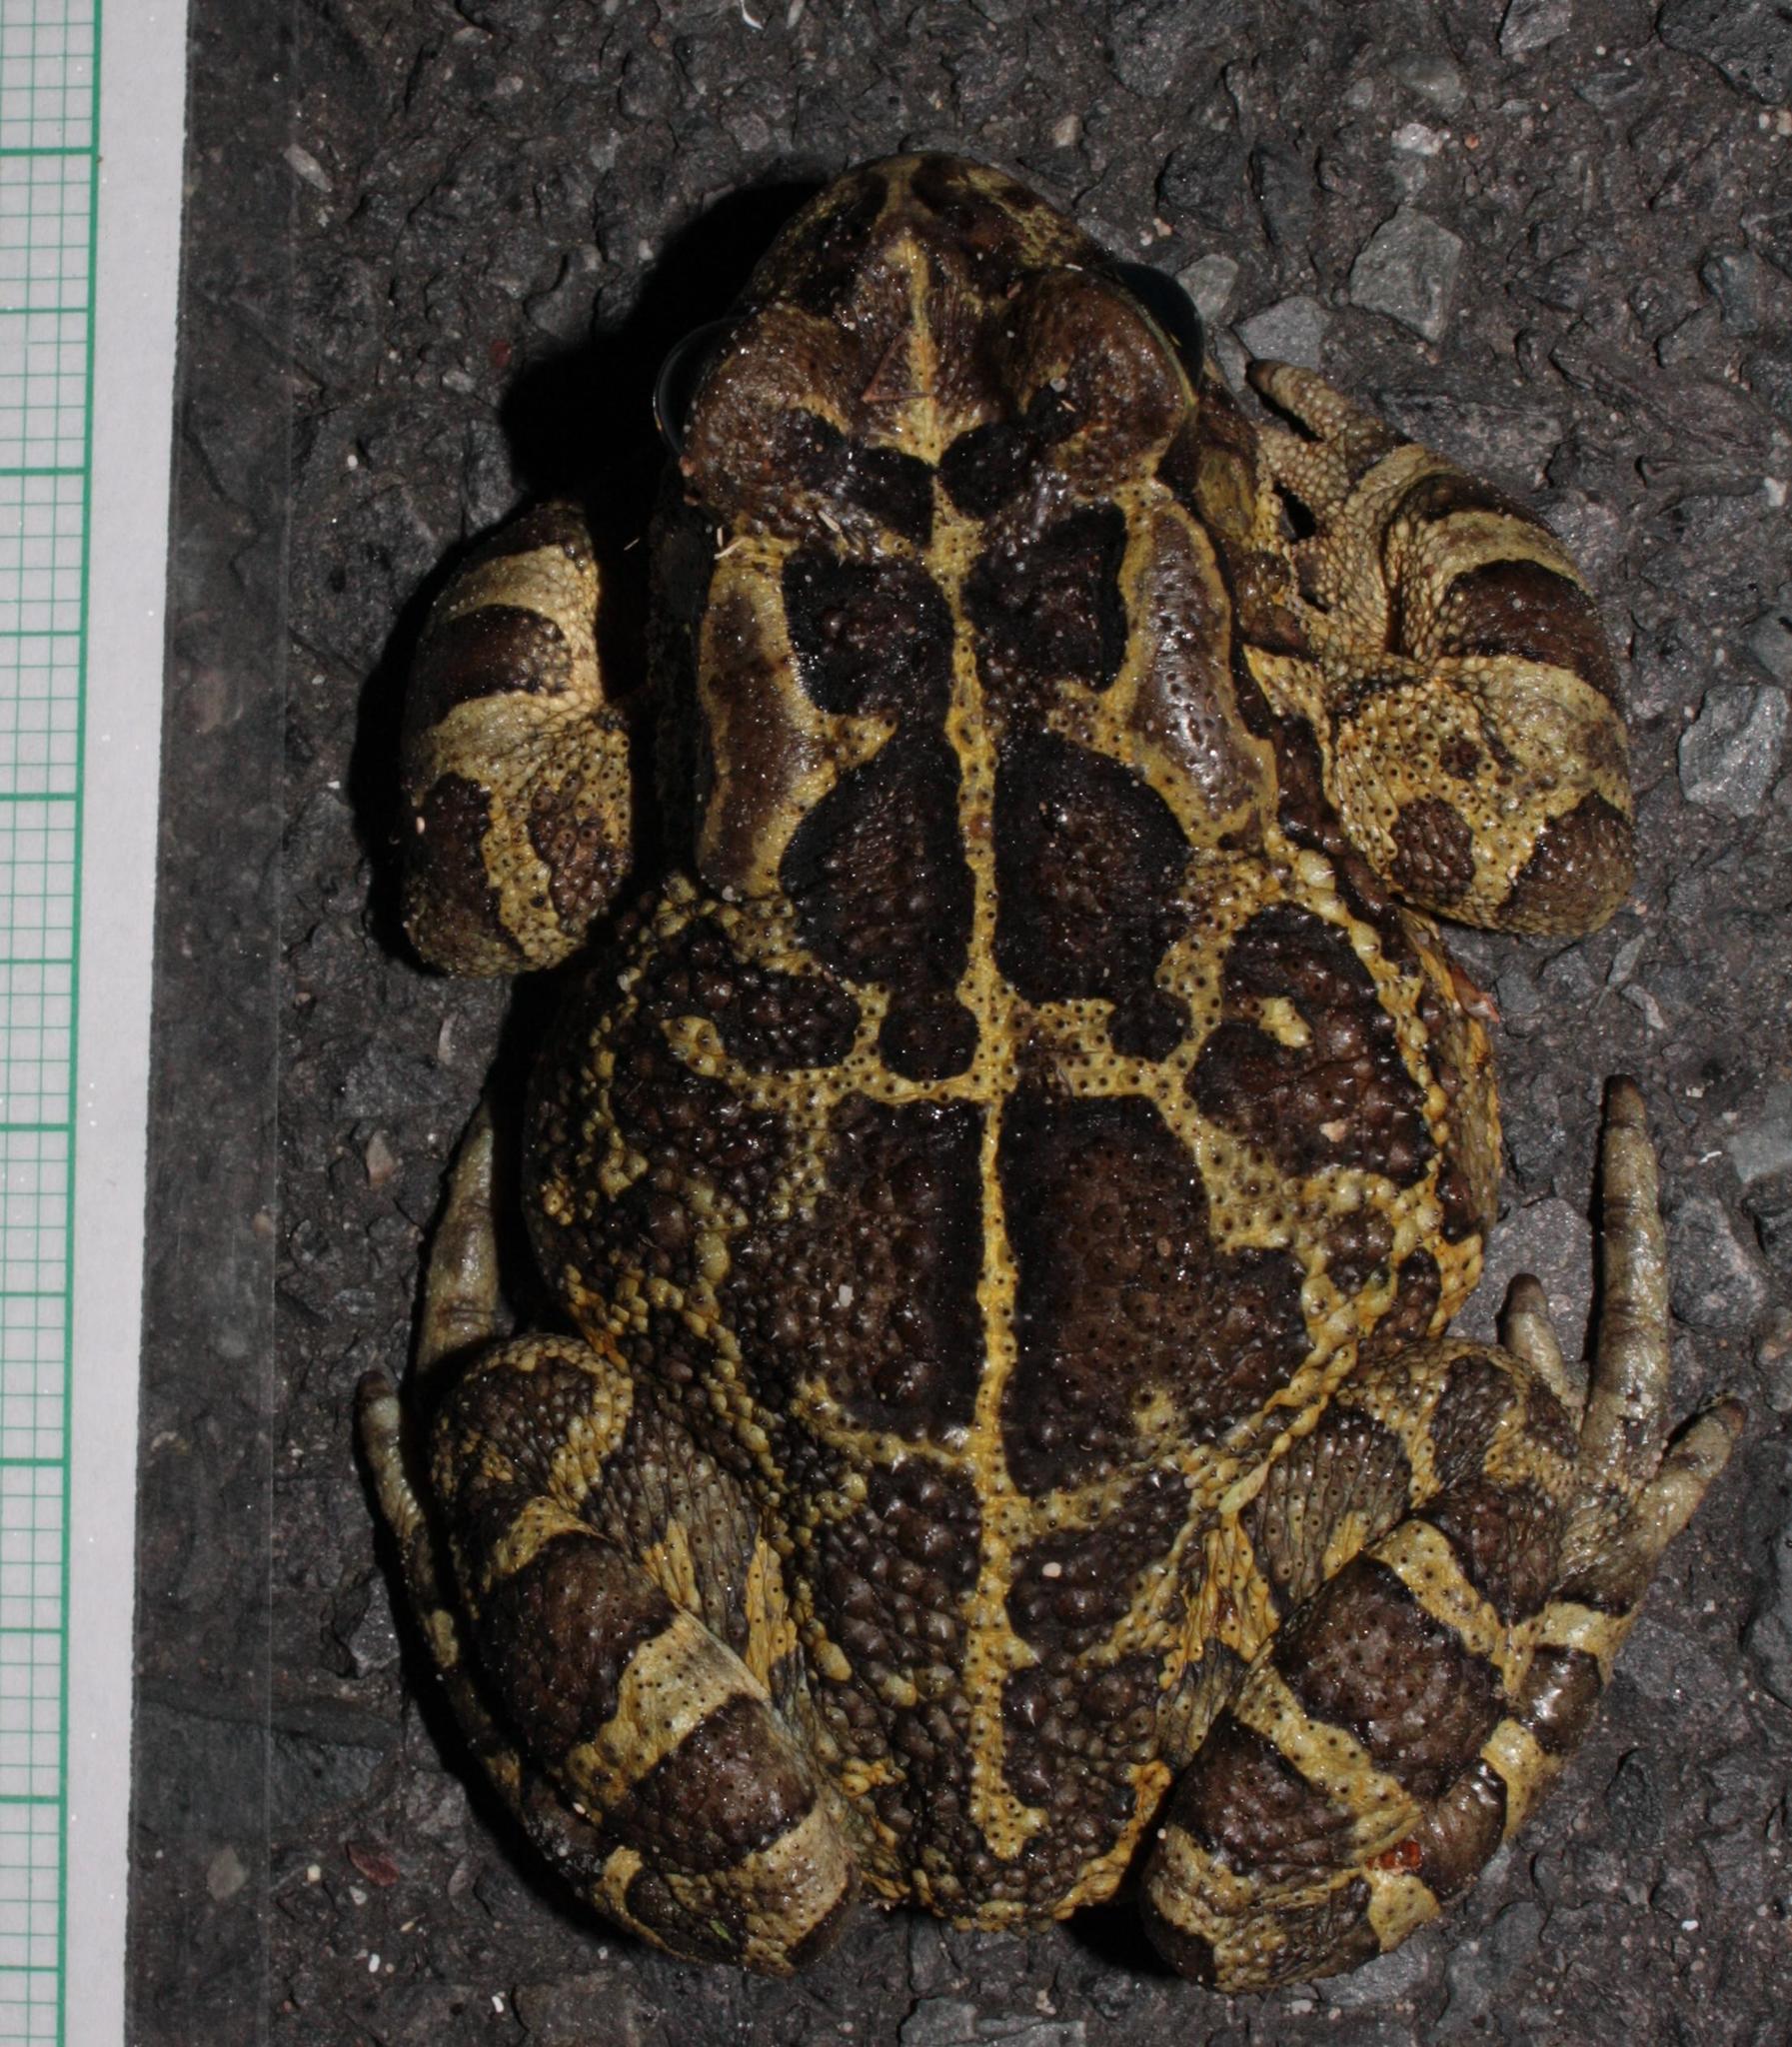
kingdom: Animalia
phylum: Chordata
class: Amphibia
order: Anura
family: Bufonidae
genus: Sclerophrys
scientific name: Sclerophrys pantherina
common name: Panther toad
